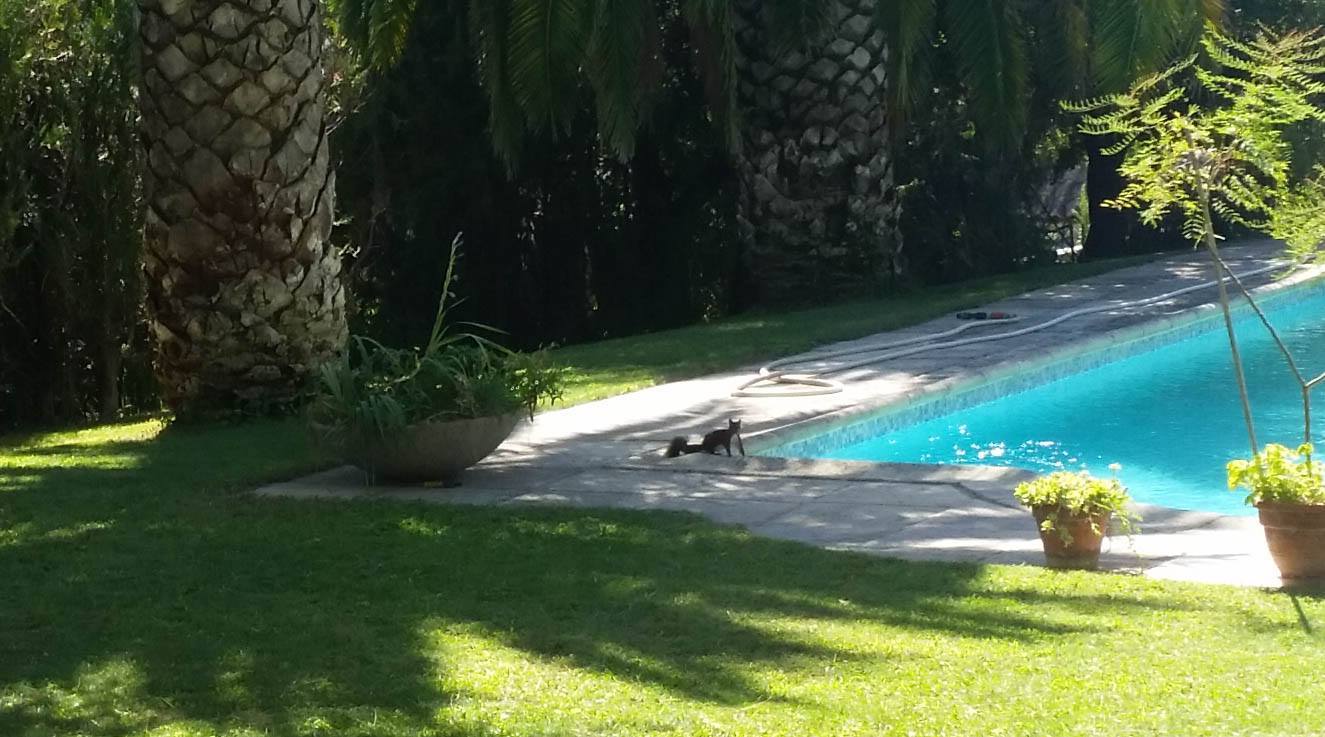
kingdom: Animalia
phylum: Chordata
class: Mammalia
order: Rodentia
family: Sciuridae
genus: Sciurus
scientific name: Sciurus vulgaris
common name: Eurasian red squirrel
